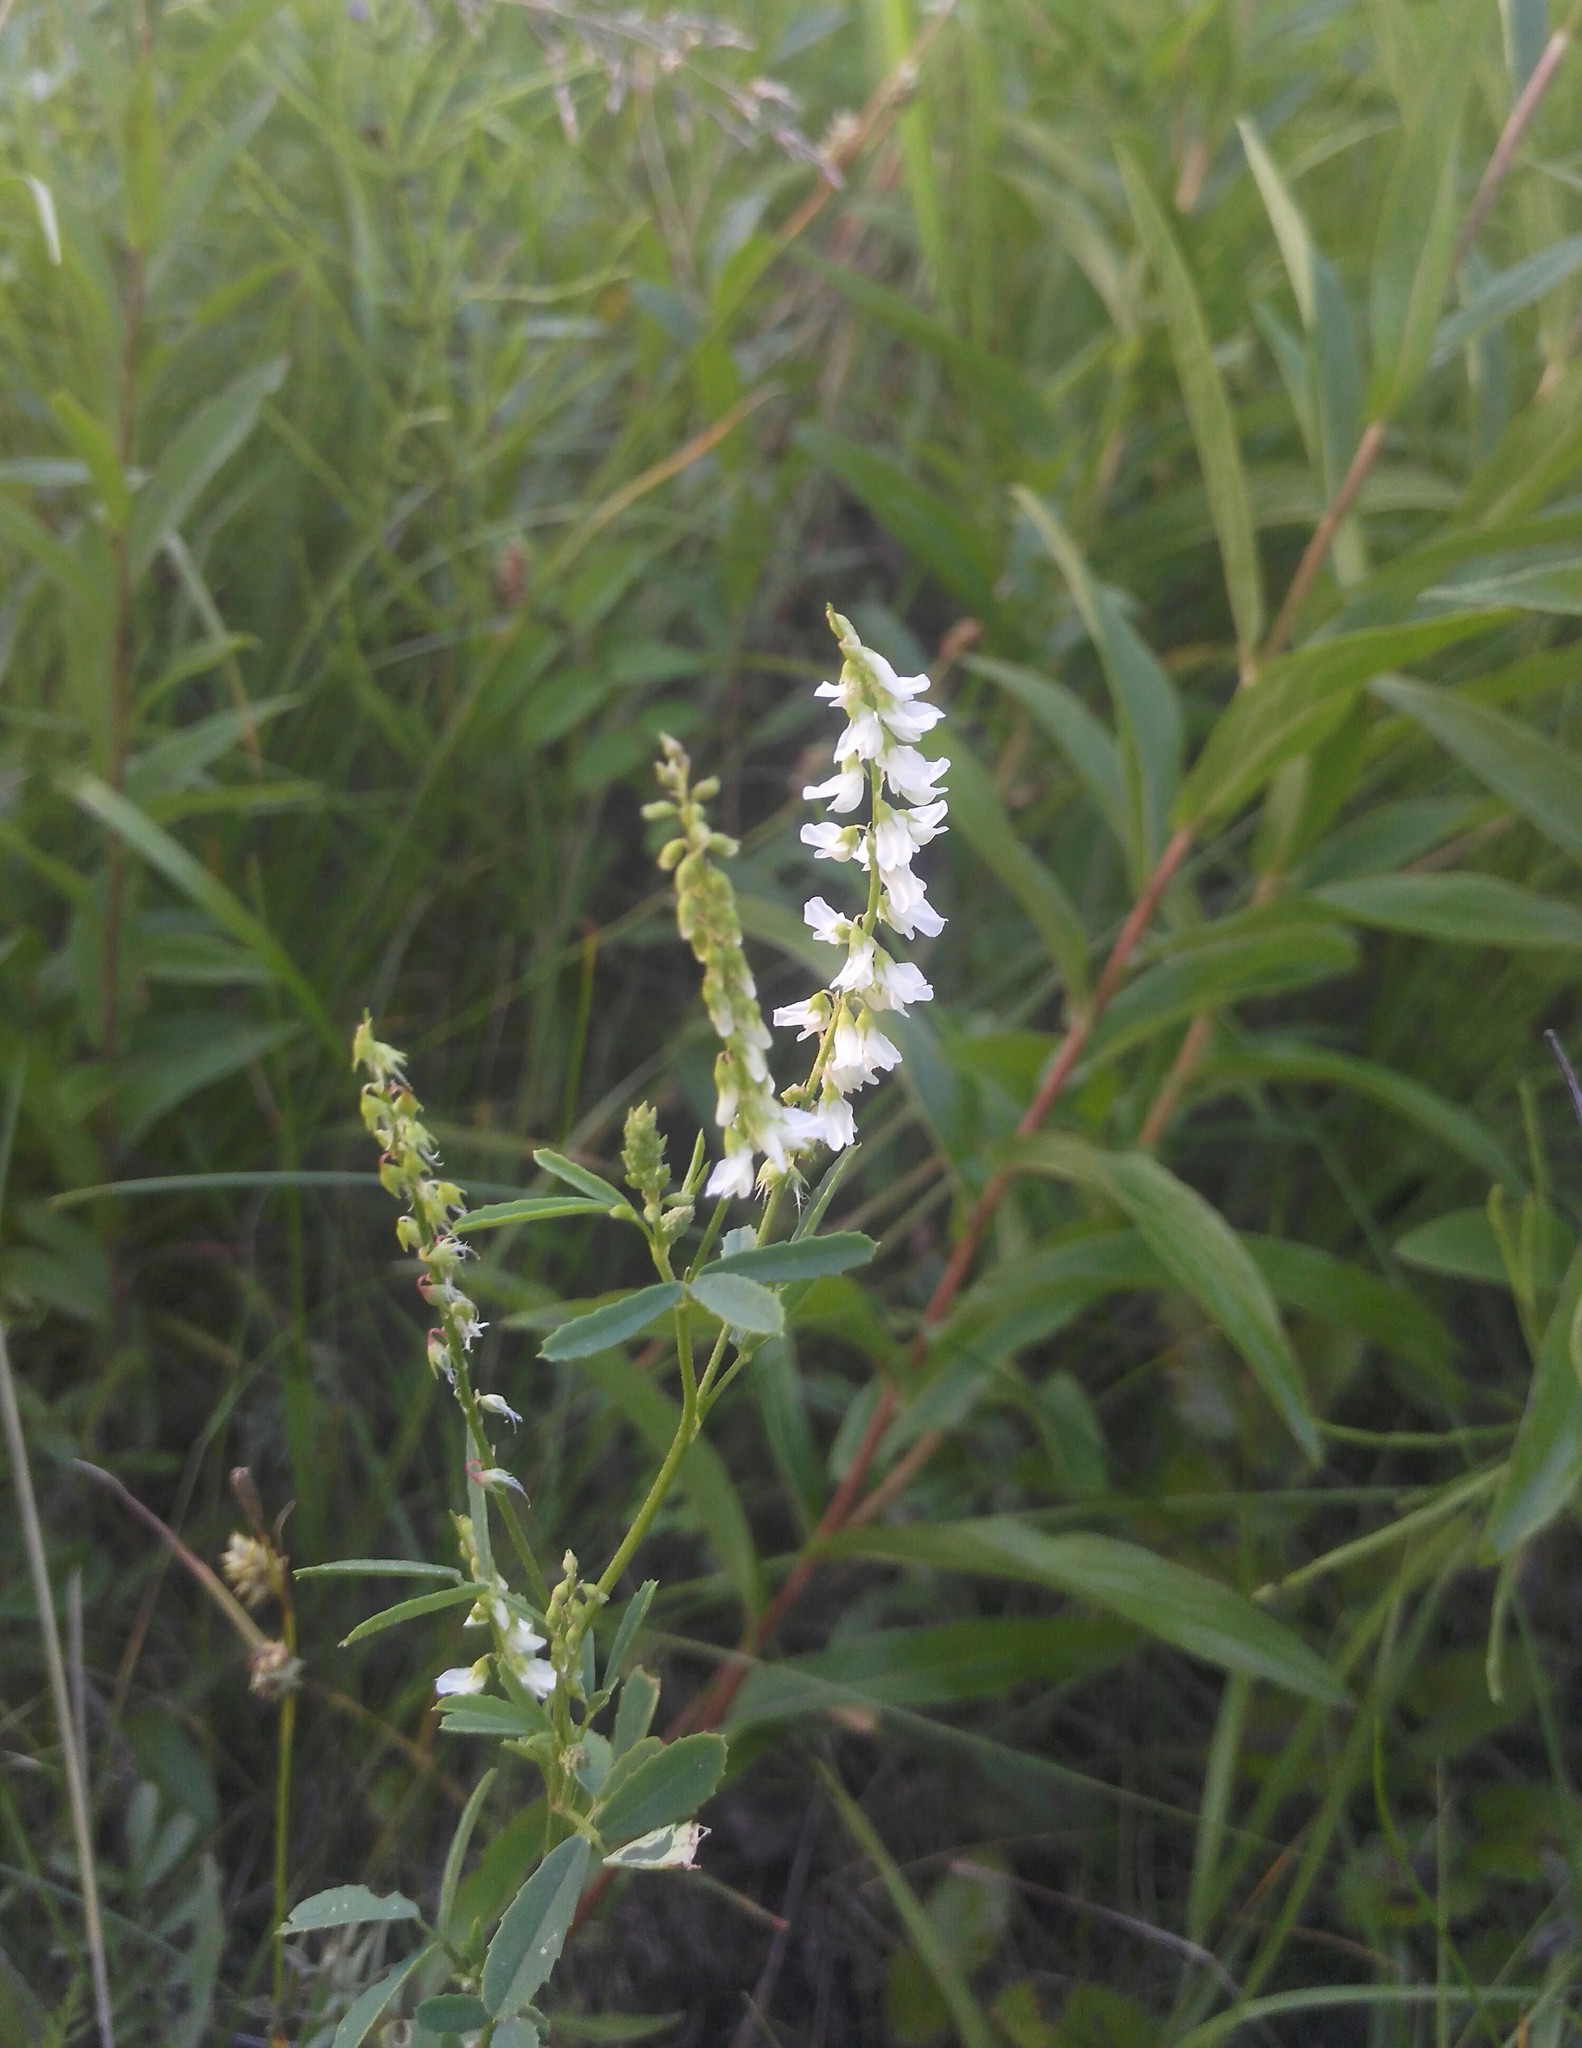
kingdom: Plantae
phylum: Tracheophyta
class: Magnoliopsida
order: Fabales
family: Fabaceae
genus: Melilotus
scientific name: Melilotus albus
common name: White melilot
